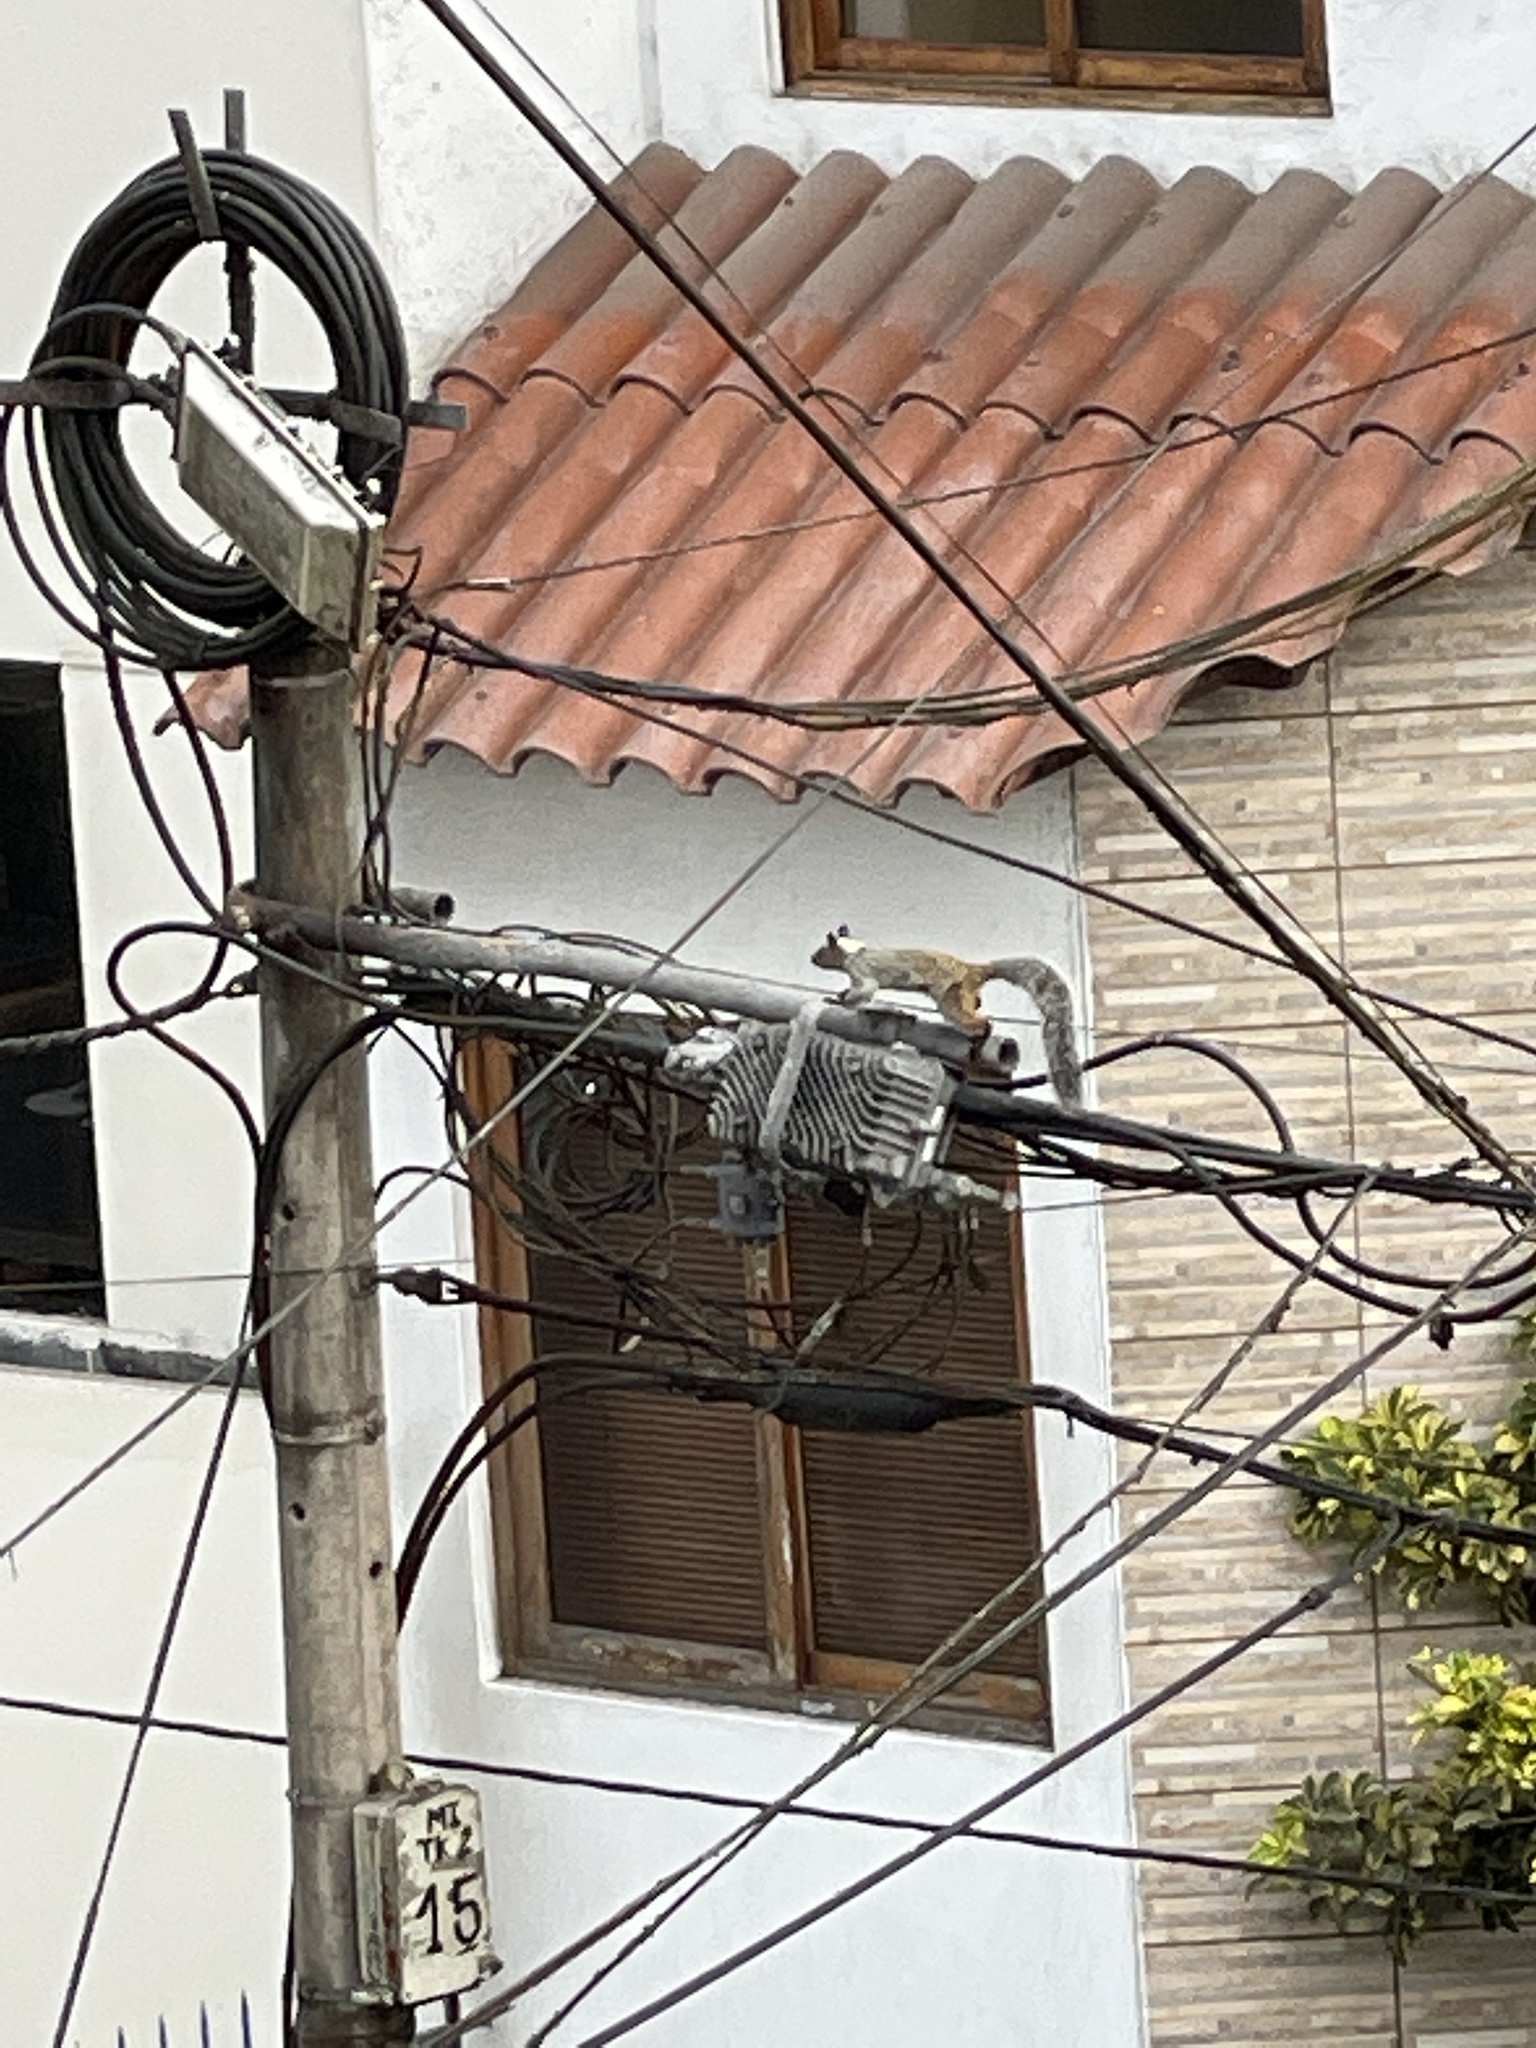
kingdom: Animalia
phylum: Chordata
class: Mammalia
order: Rodentia
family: Sciuridae
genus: Sciurus
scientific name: Sciurus stramineus
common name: Guayaquil squirrel
